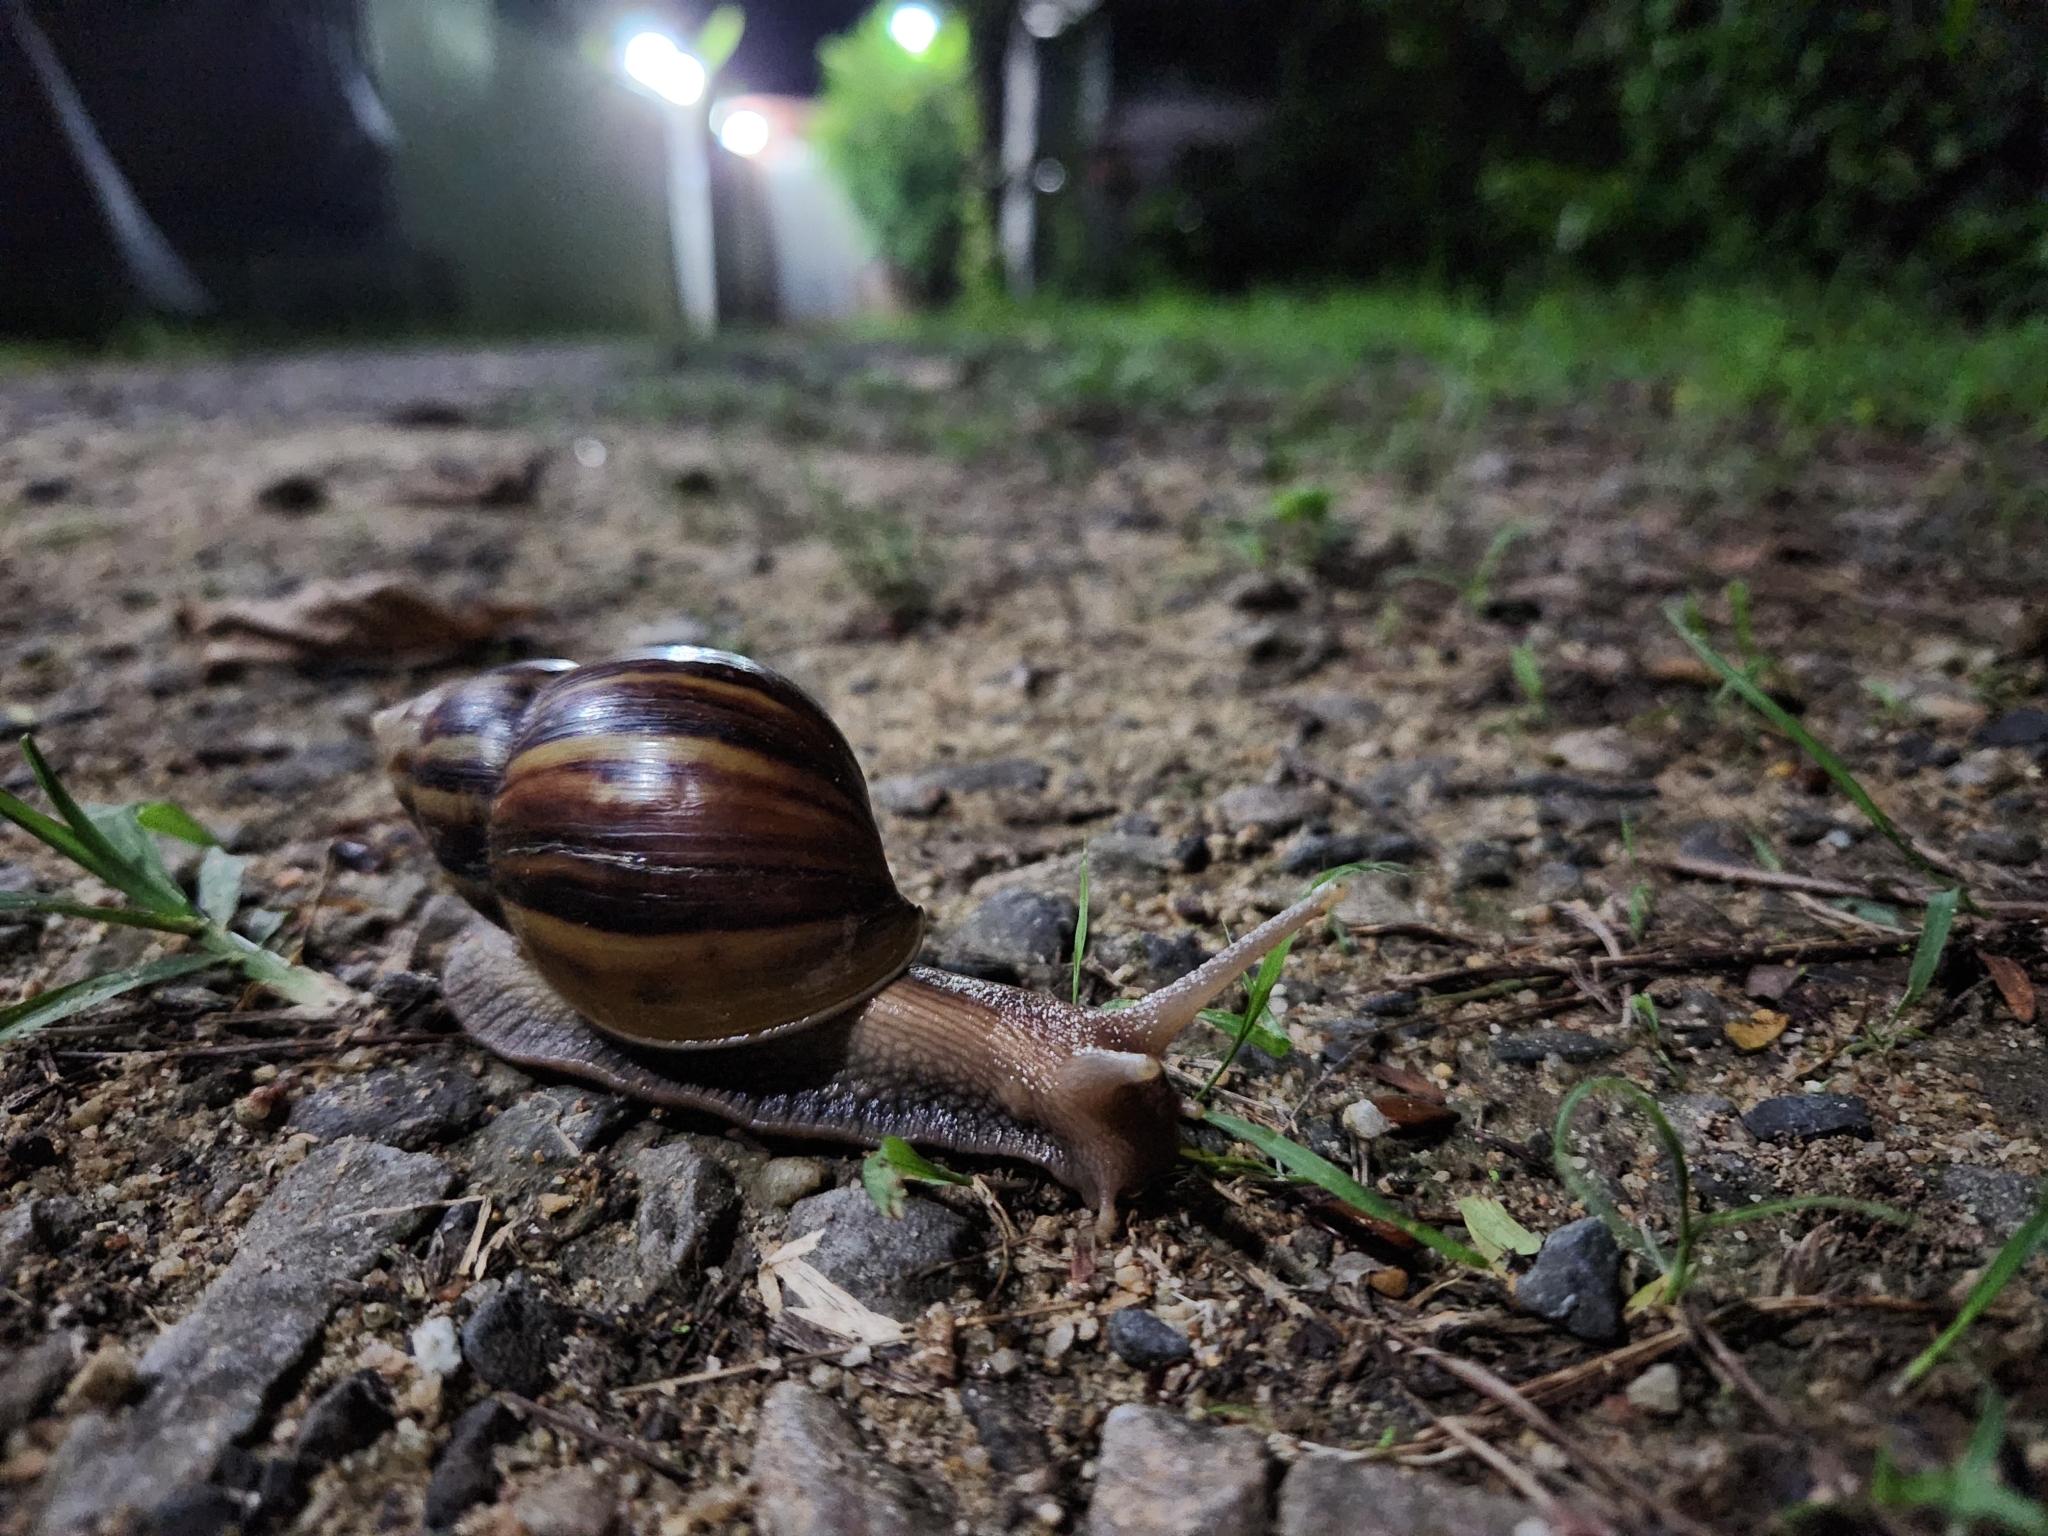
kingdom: Animalia
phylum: Mollusca
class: Gastropoda
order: Stylommatophora
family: Achatinidae
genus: Lissachatina
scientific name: Lissachatina fulica
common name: Giant african snail
